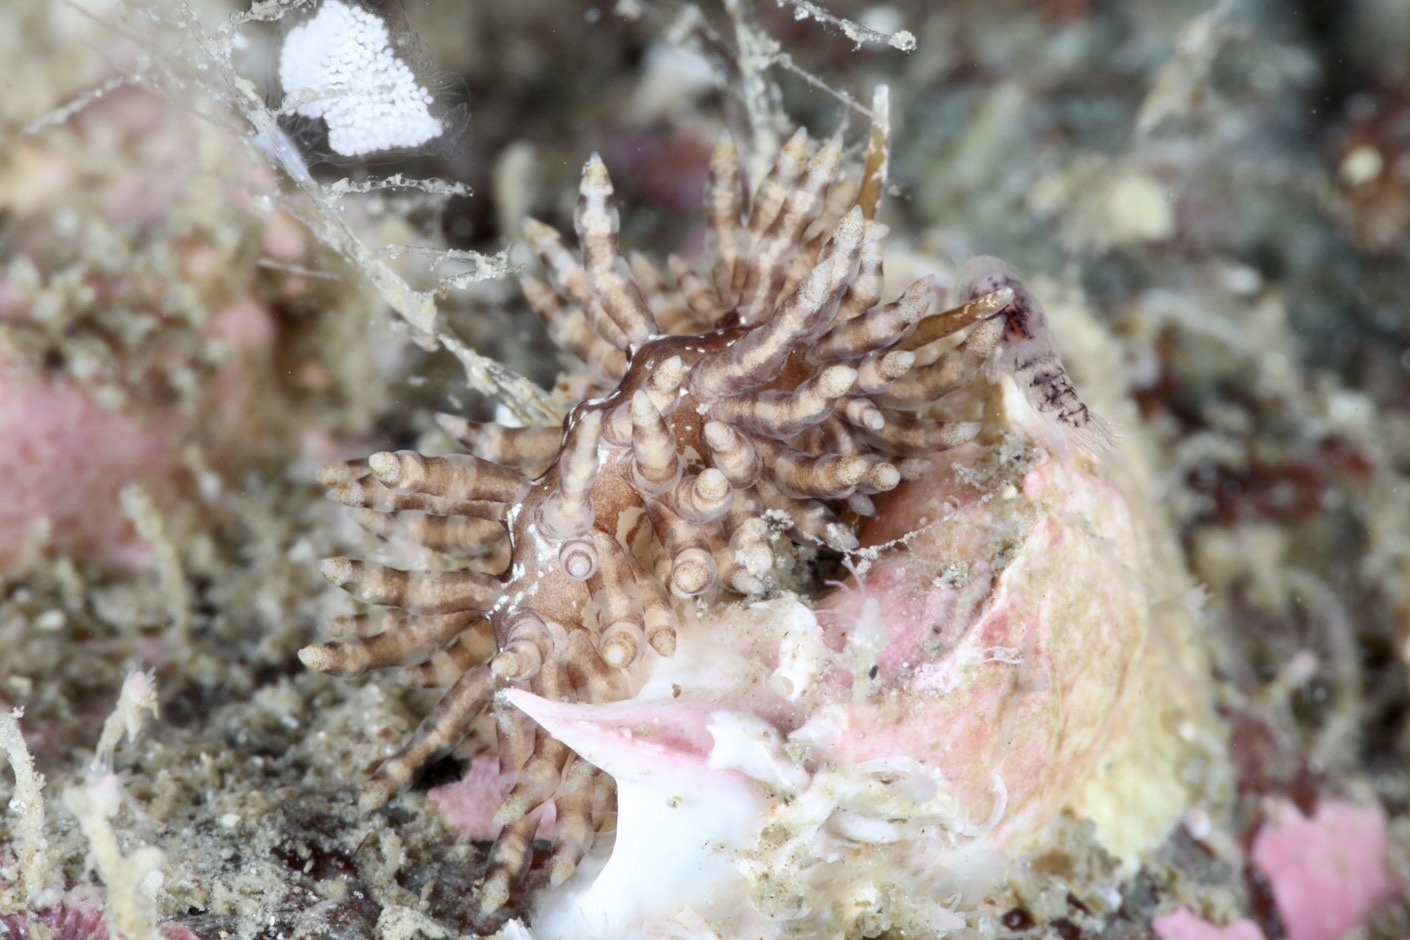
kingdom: Animalia
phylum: Mollusca
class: Gastropoda
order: Nudibranchia
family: Eubranchidae
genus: Eubranchus
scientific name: Eubranchus vittatus
